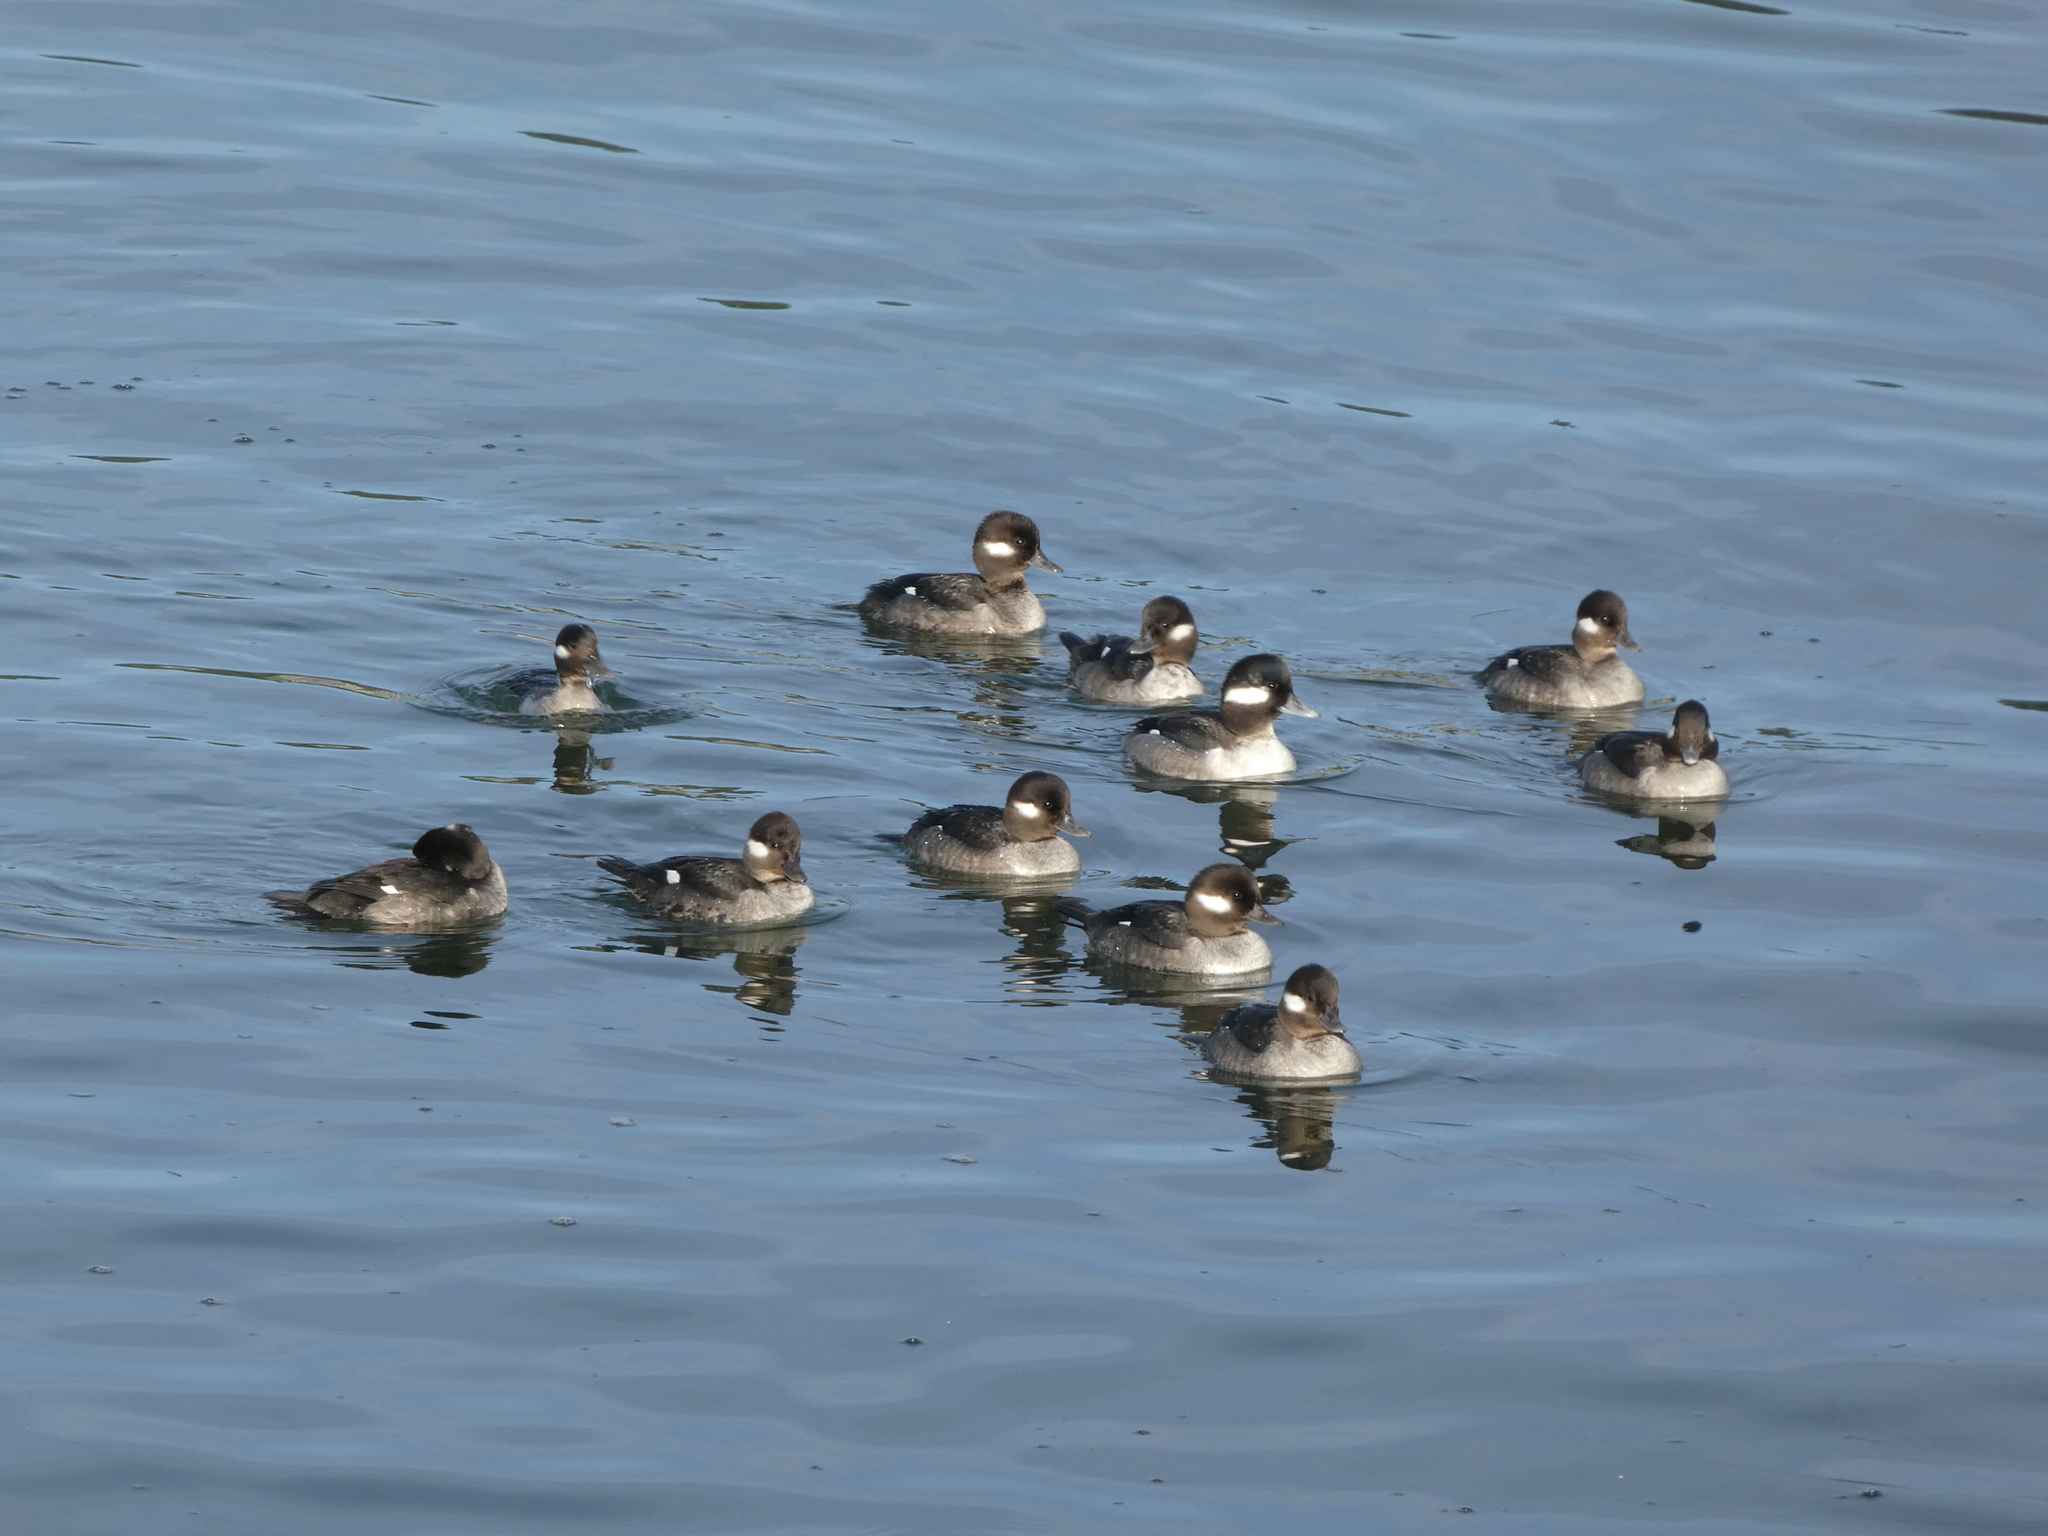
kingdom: Animalia
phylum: Chordata
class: Aves
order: Anseriformes
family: Anatidae
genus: Bucephala
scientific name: Bucephala albeola
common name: Bufflehead
